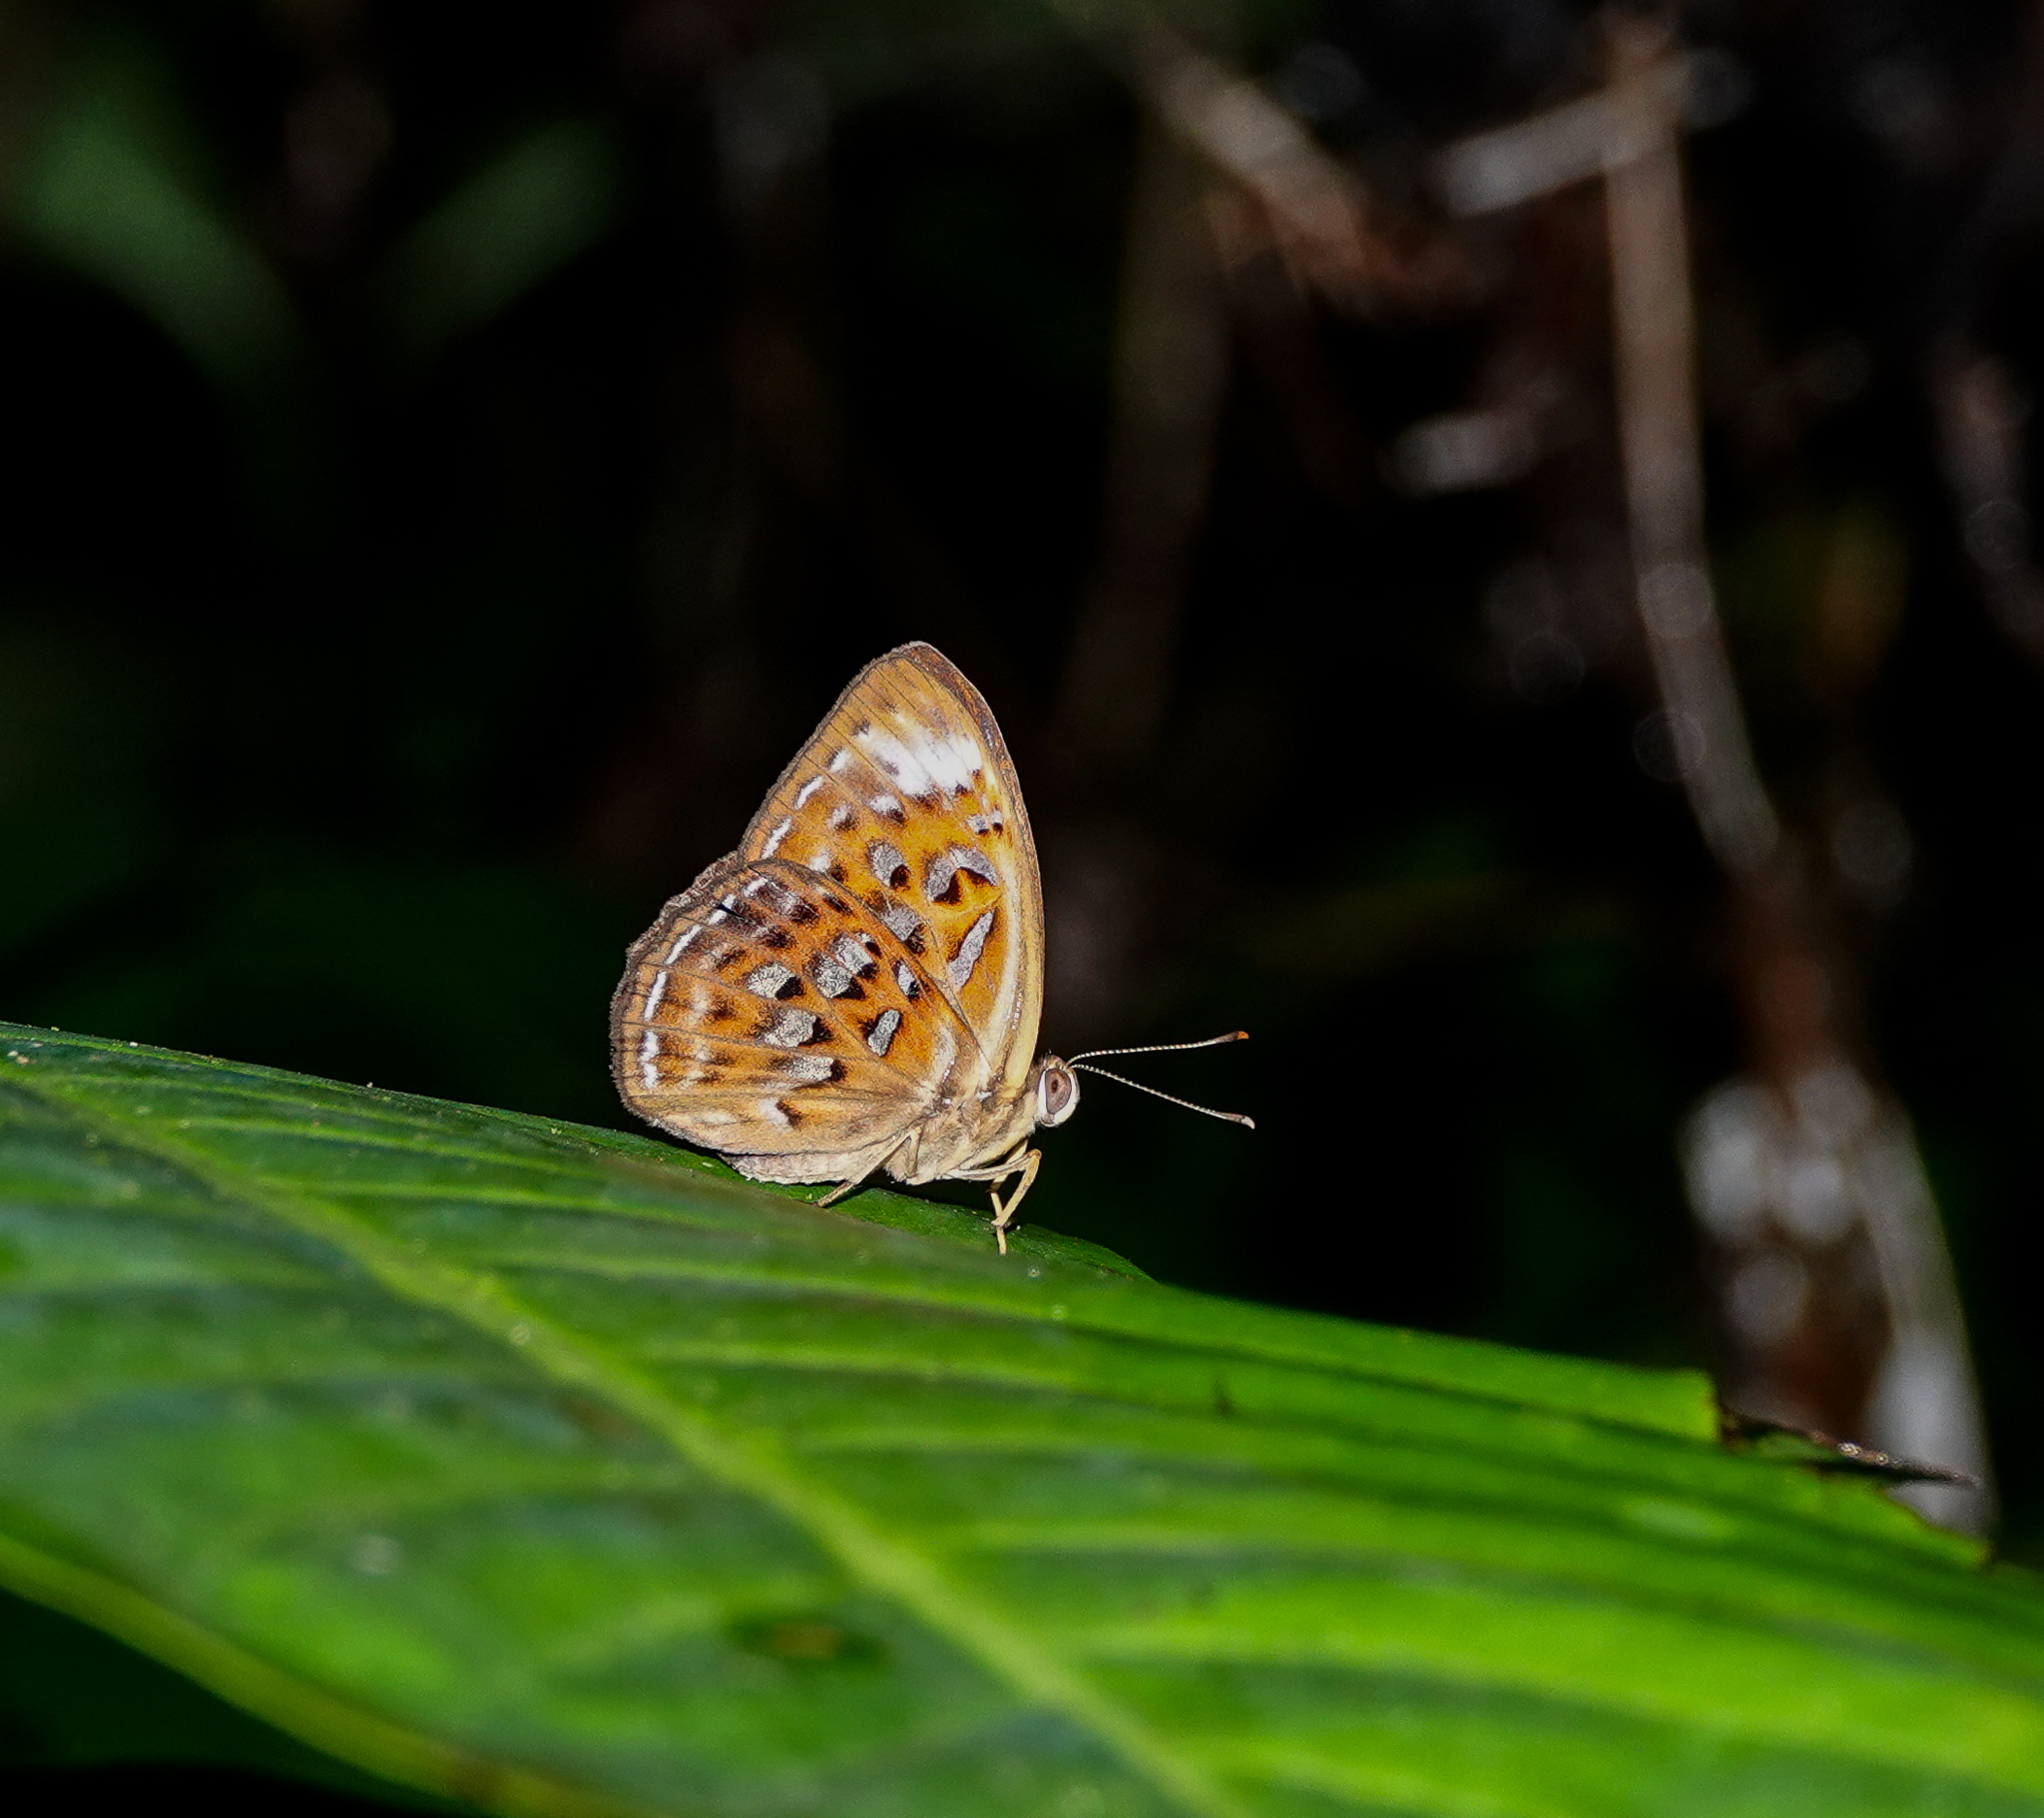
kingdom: Animalia
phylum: Arthropoda
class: Insecta
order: Lepidoptera
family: Erebidae
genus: Dysschema
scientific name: Dysschema
